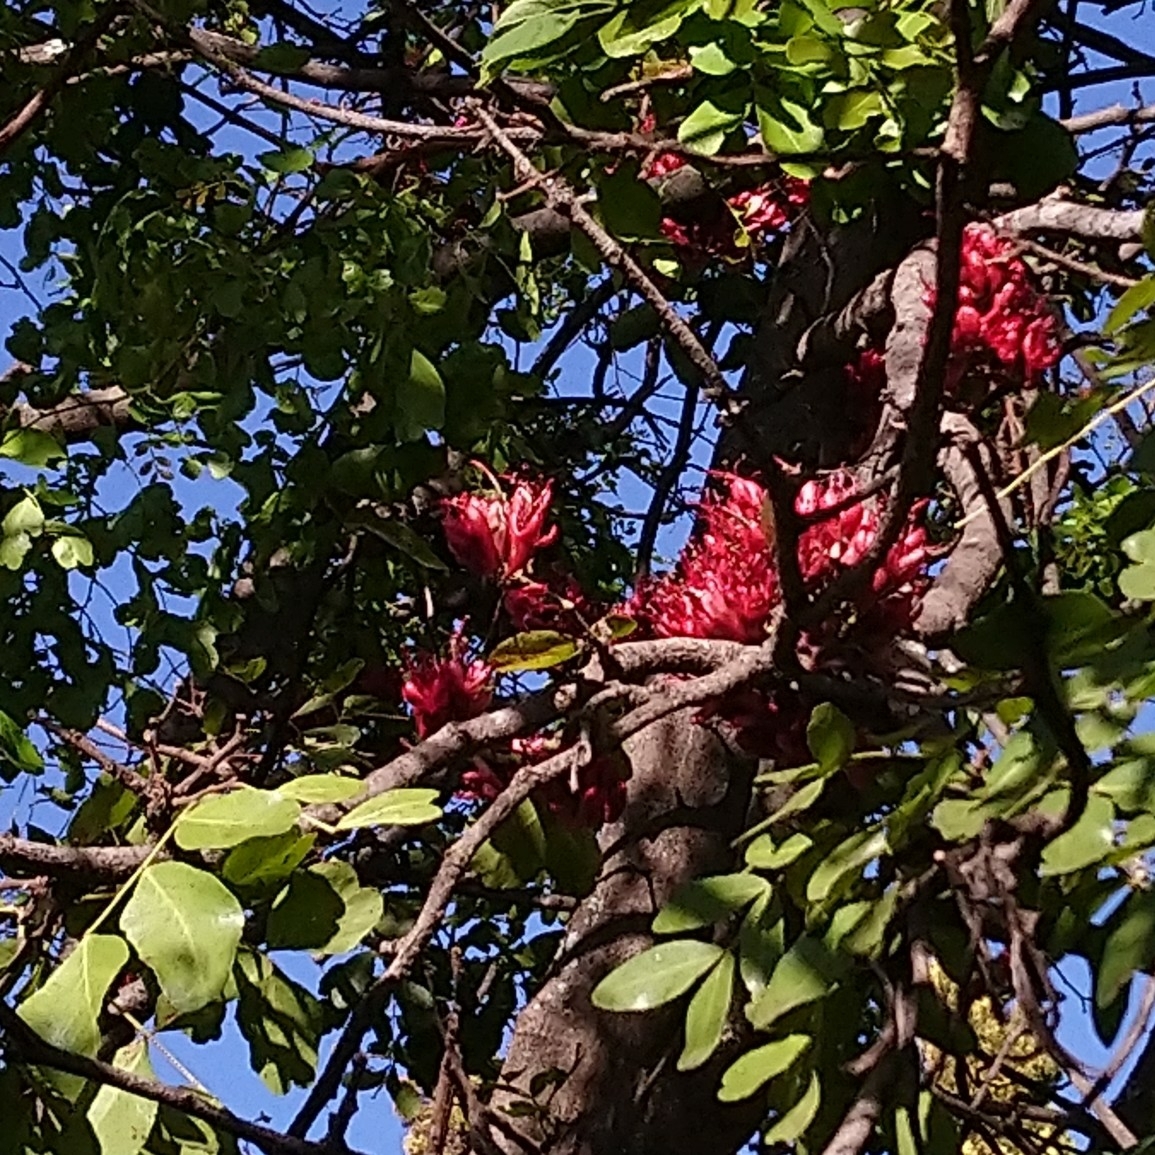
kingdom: Plantae
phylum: Tracheophyta
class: Magnoliopsida
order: Fabales
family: Fabaceae
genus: Schotia
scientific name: Schotia brachypetala
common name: Weeping boer-bean
